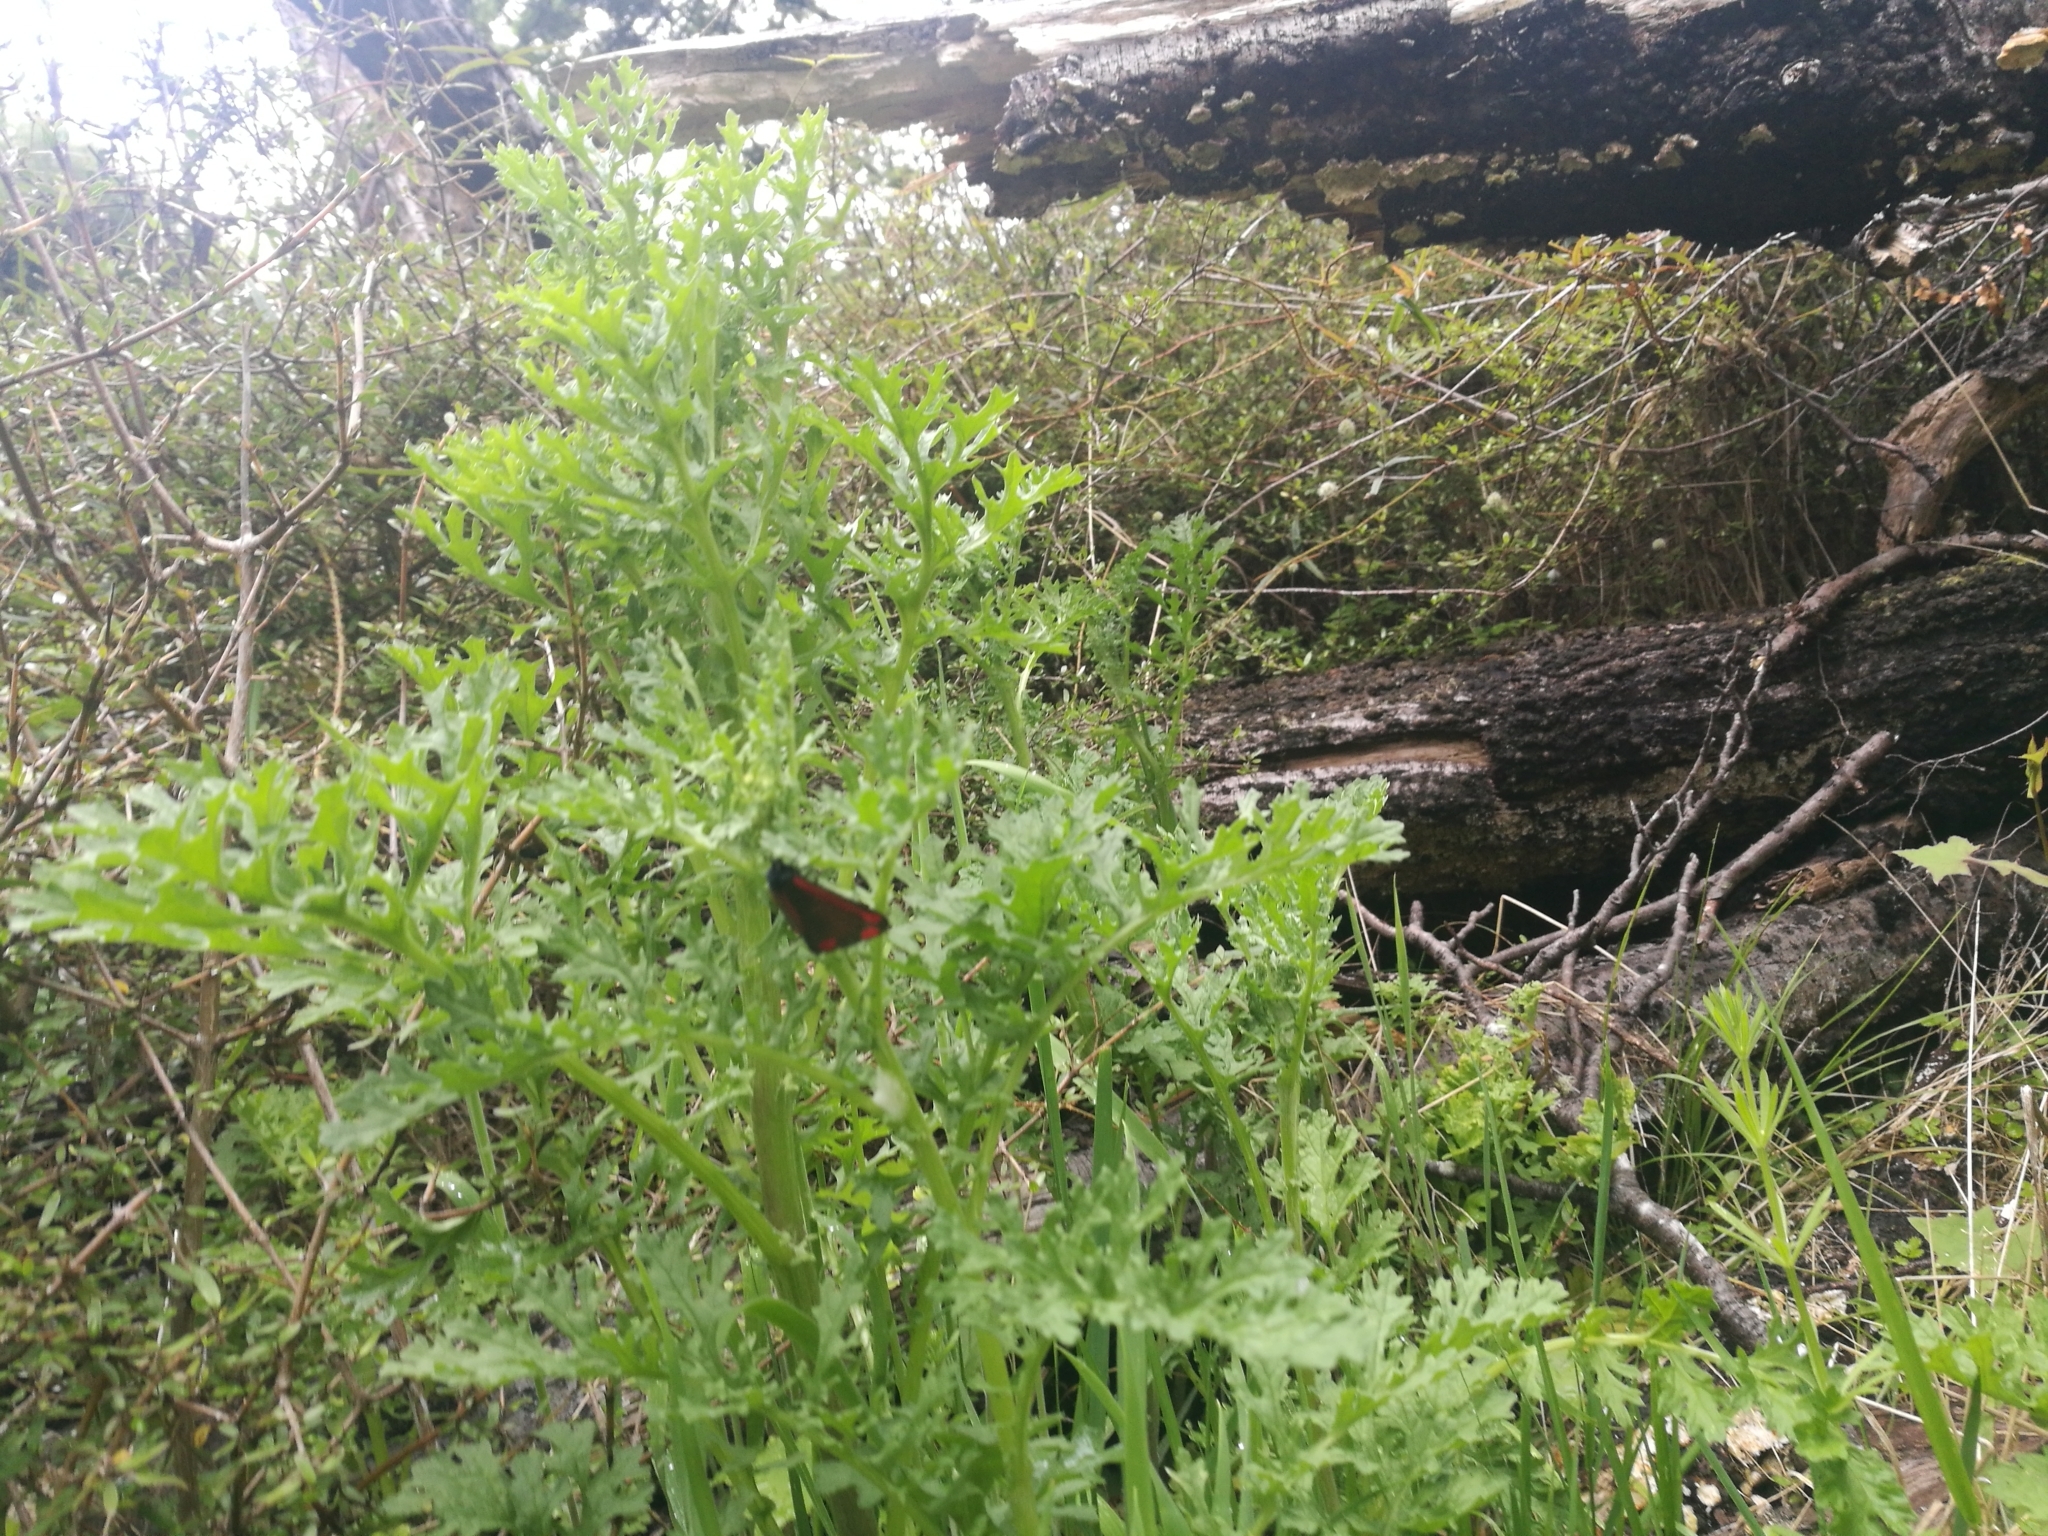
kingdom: Plantae
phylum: Tracheophyta
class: Magnoliopsida
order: Asterales
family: Asteraceae
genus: Jacobaea
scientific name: Jacobaea vulgaris
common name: Stinking willie
